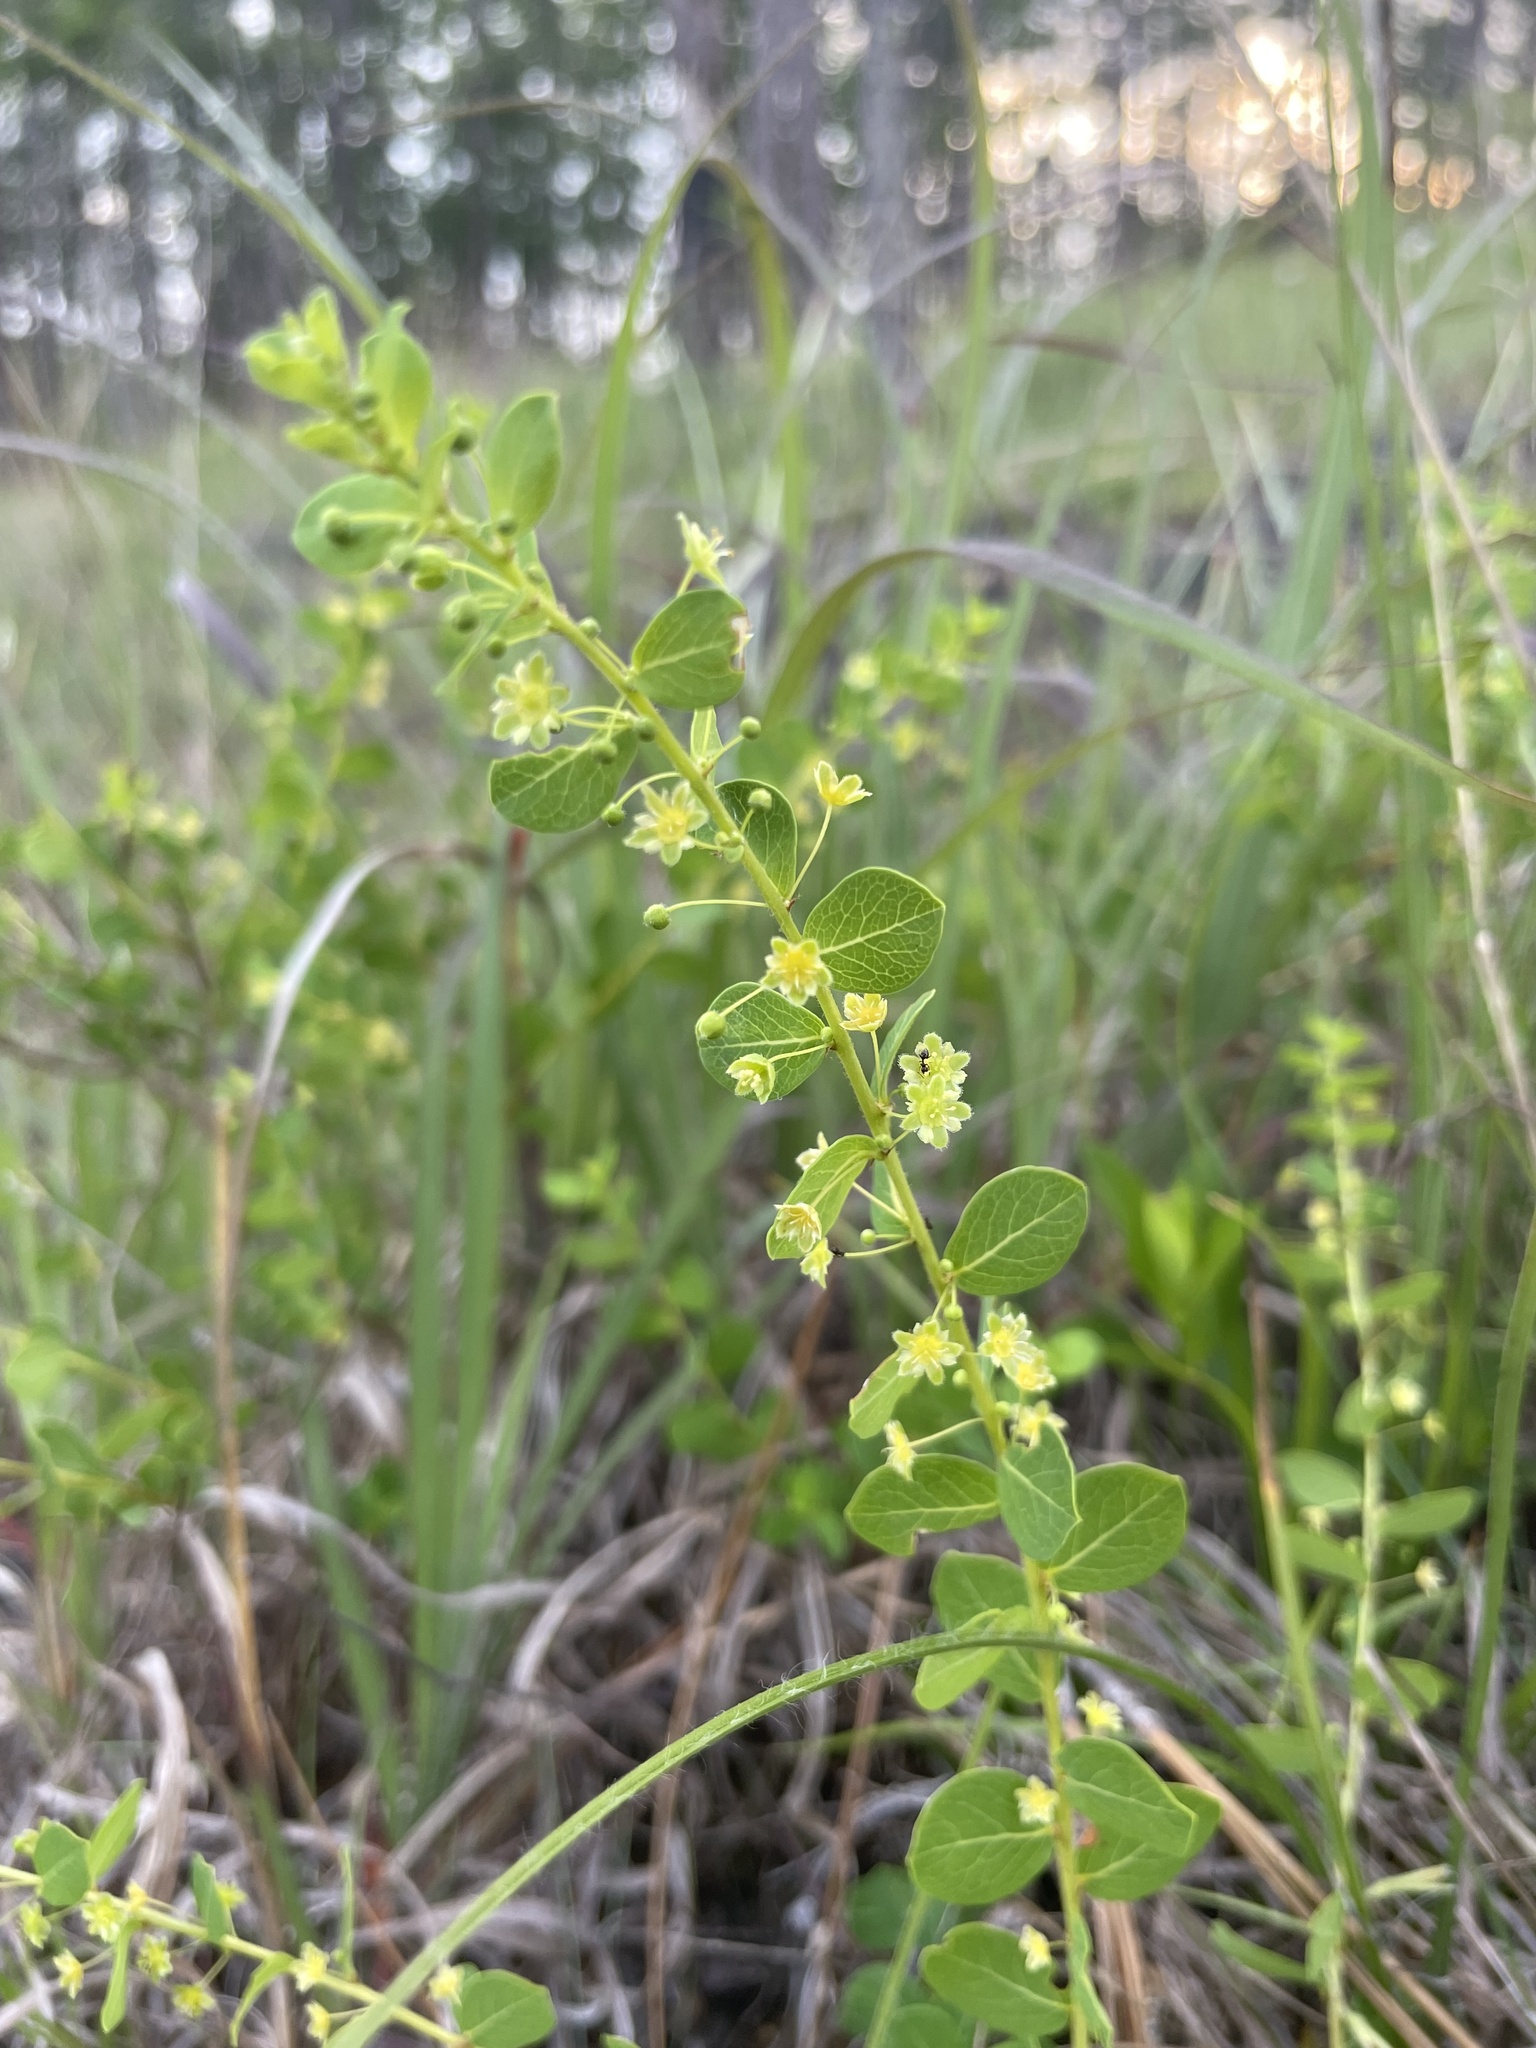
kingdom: Plantae
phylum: Tracheophyta
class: Magnoliopsida
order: Malpighiales
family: Phyllanthaceae
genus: Phyllanthopsis
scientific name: Phyllanthopsis phyllanthoides
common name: Missouri maidenbush
